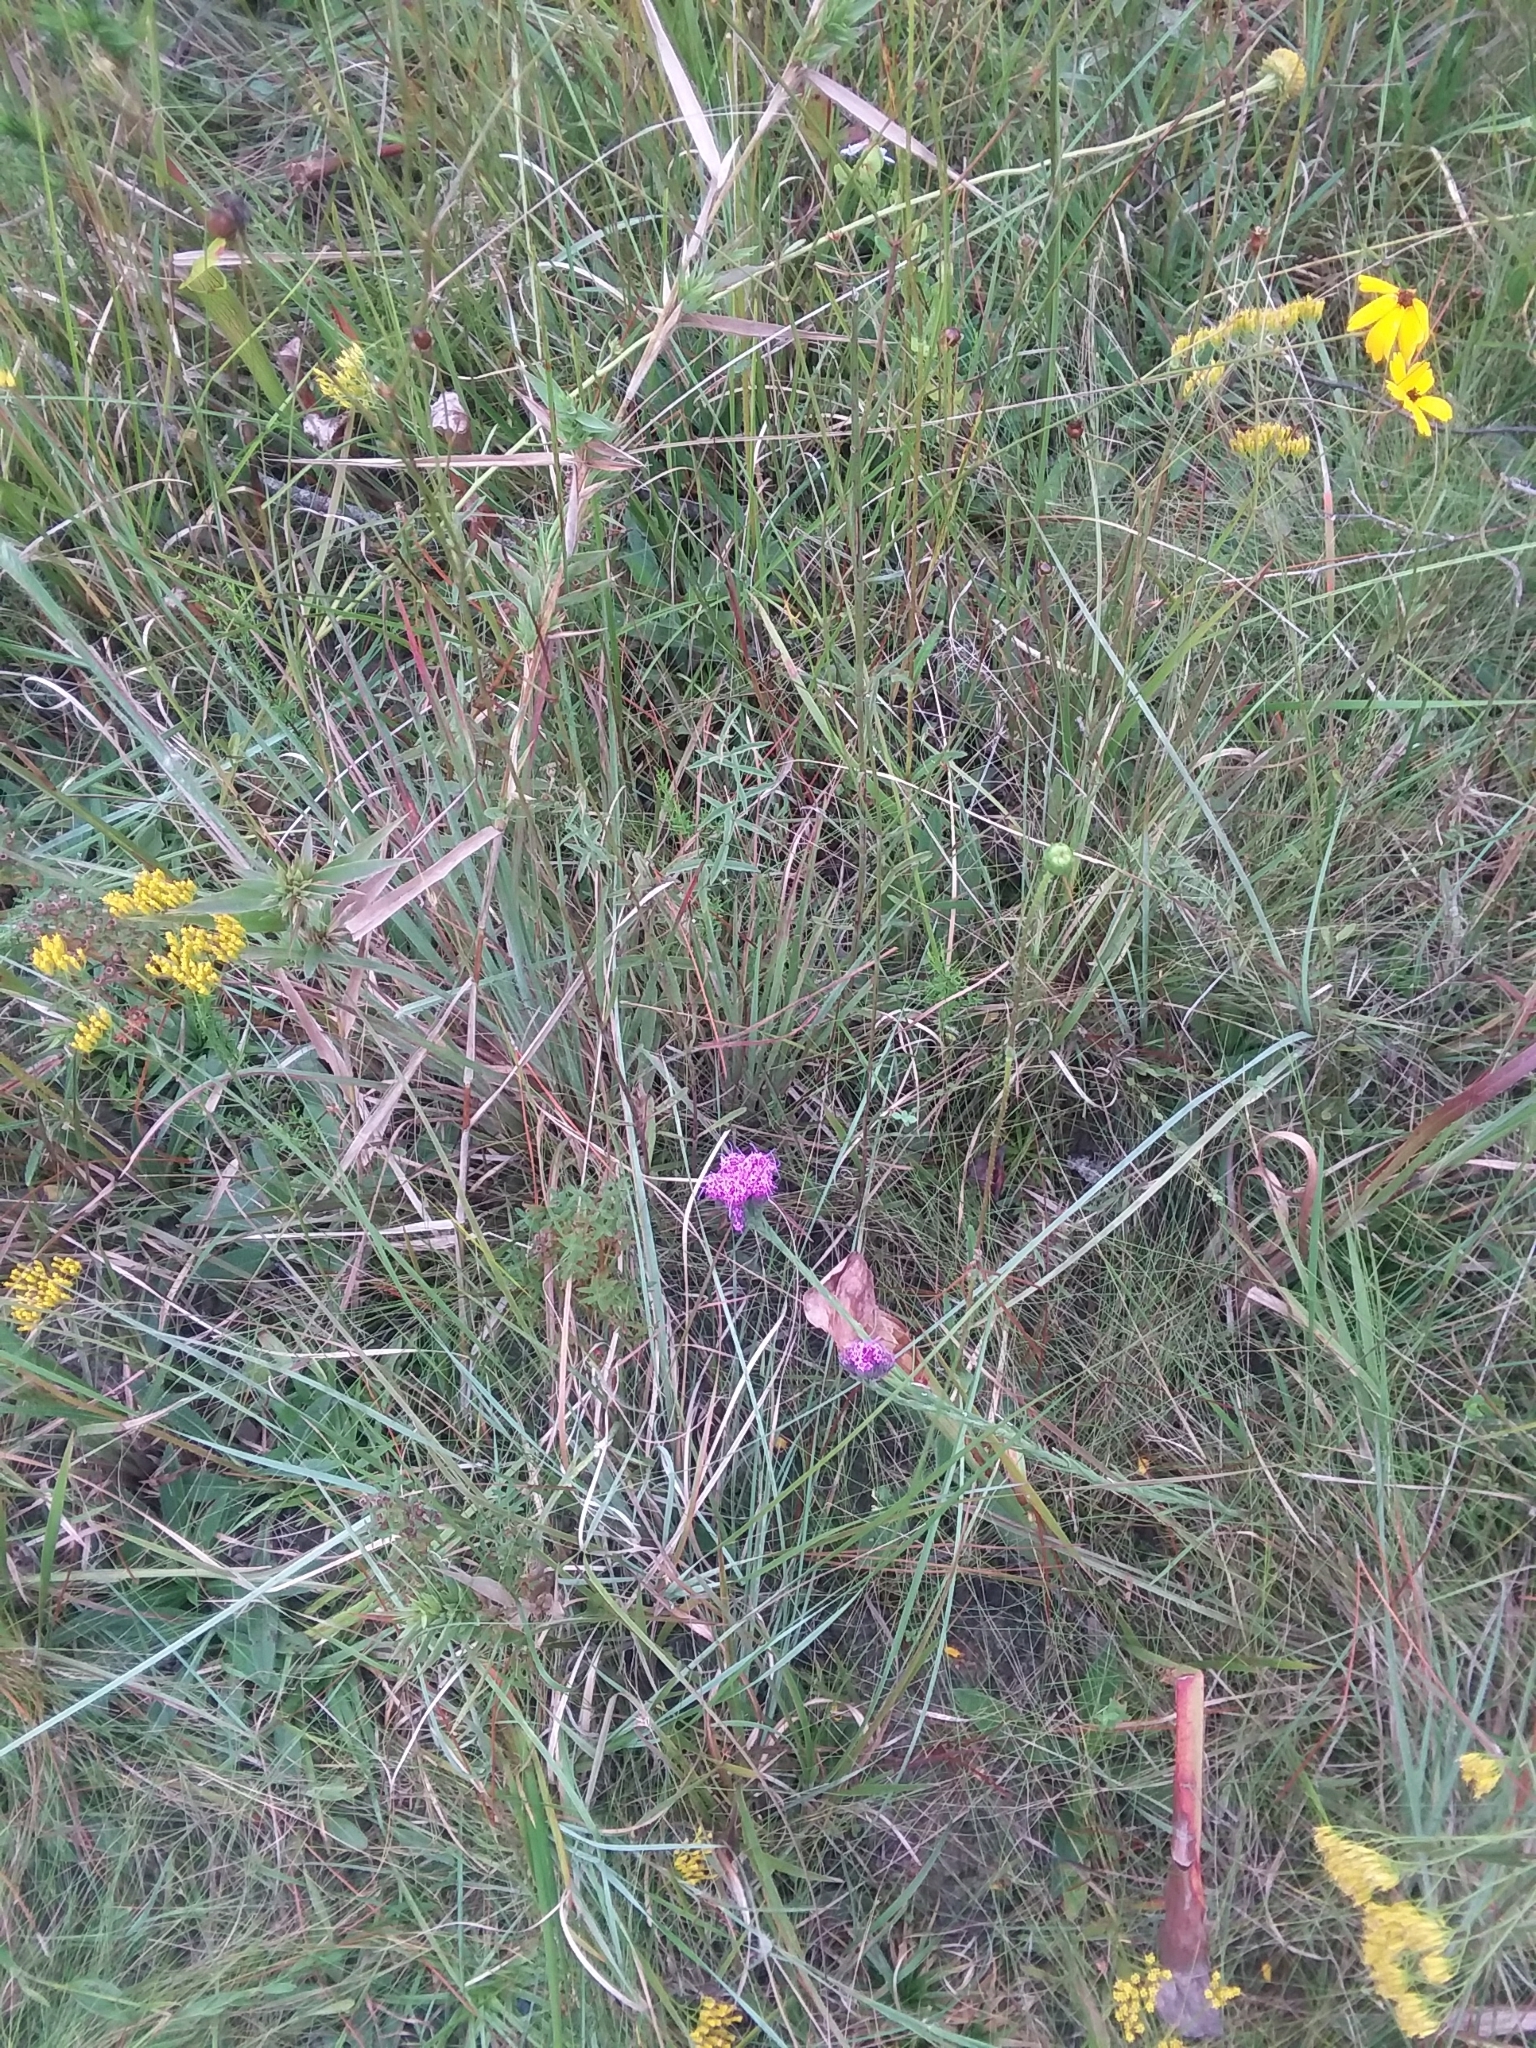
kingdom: Plantae
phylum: Tracheophyta
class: Magnoliopsida
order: Asterales
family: Asteraceae
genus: Carphephorus
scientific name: Carphephorus pseudoliatris
